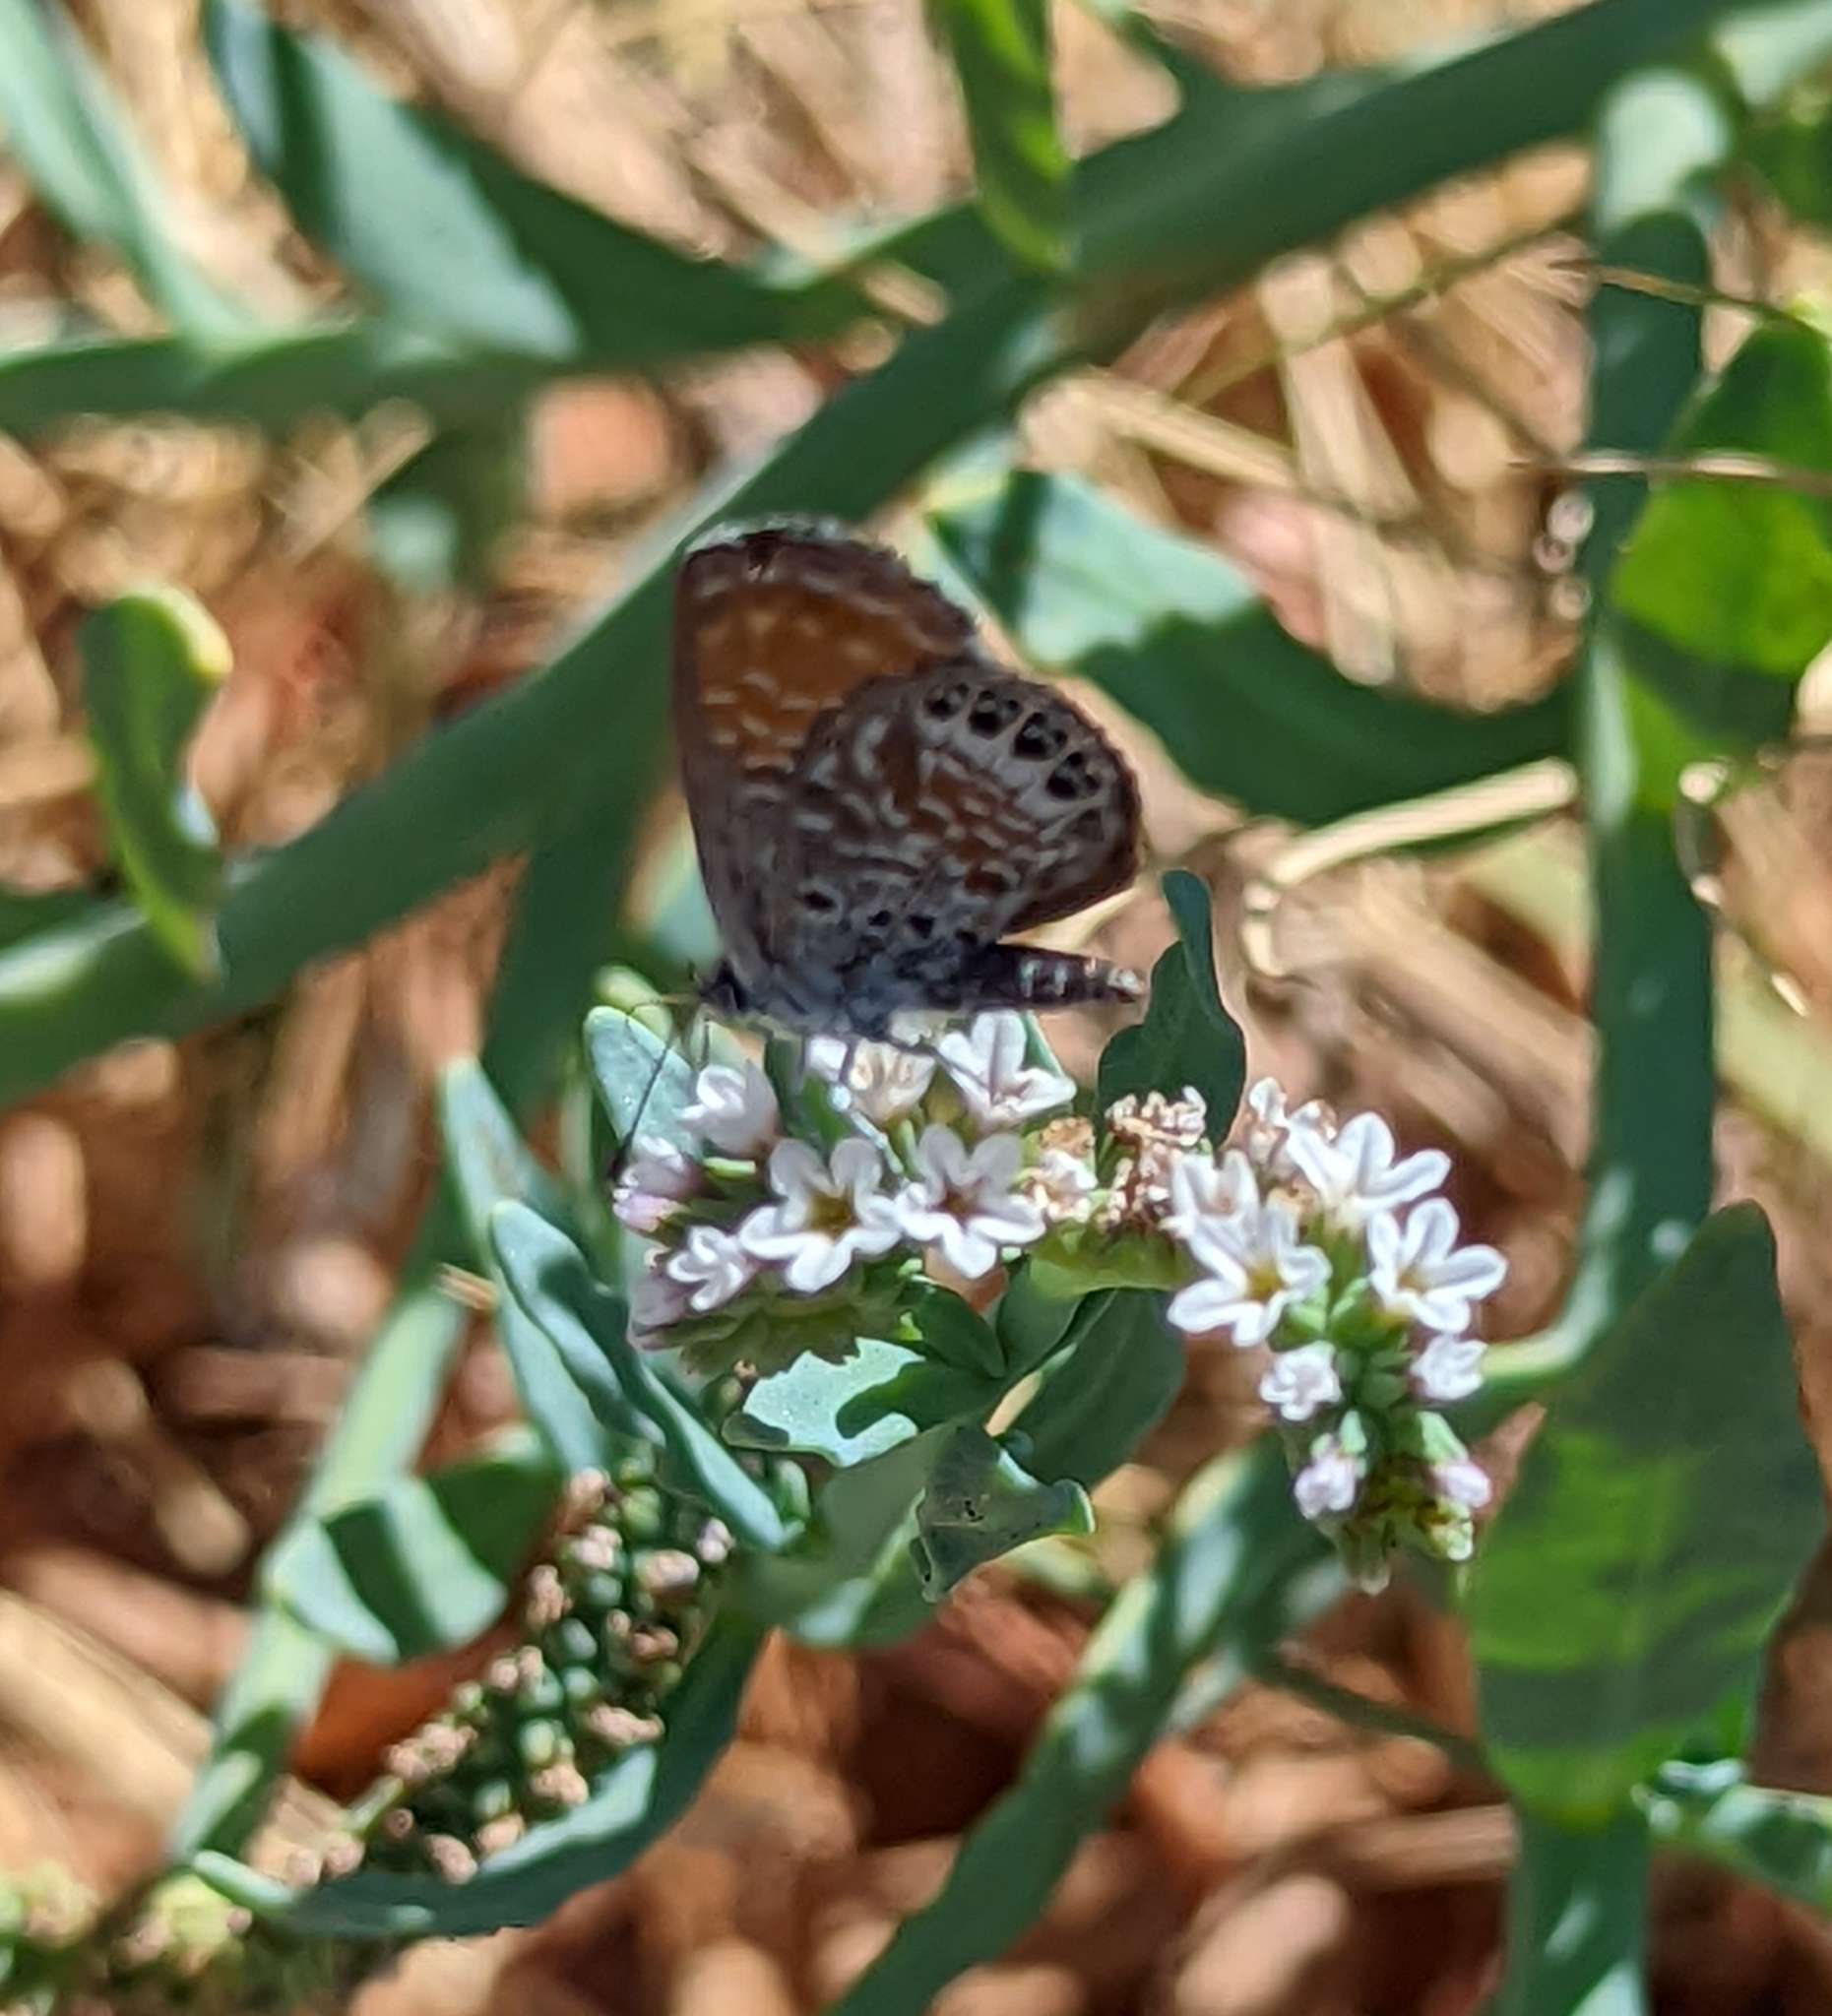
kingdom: Animalia
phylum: Arthropoda
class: Insecta
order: Lepidoptera
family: Lycaenidae
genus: Brephidium
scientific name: Brephidium exilis
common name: Pygmy blue
